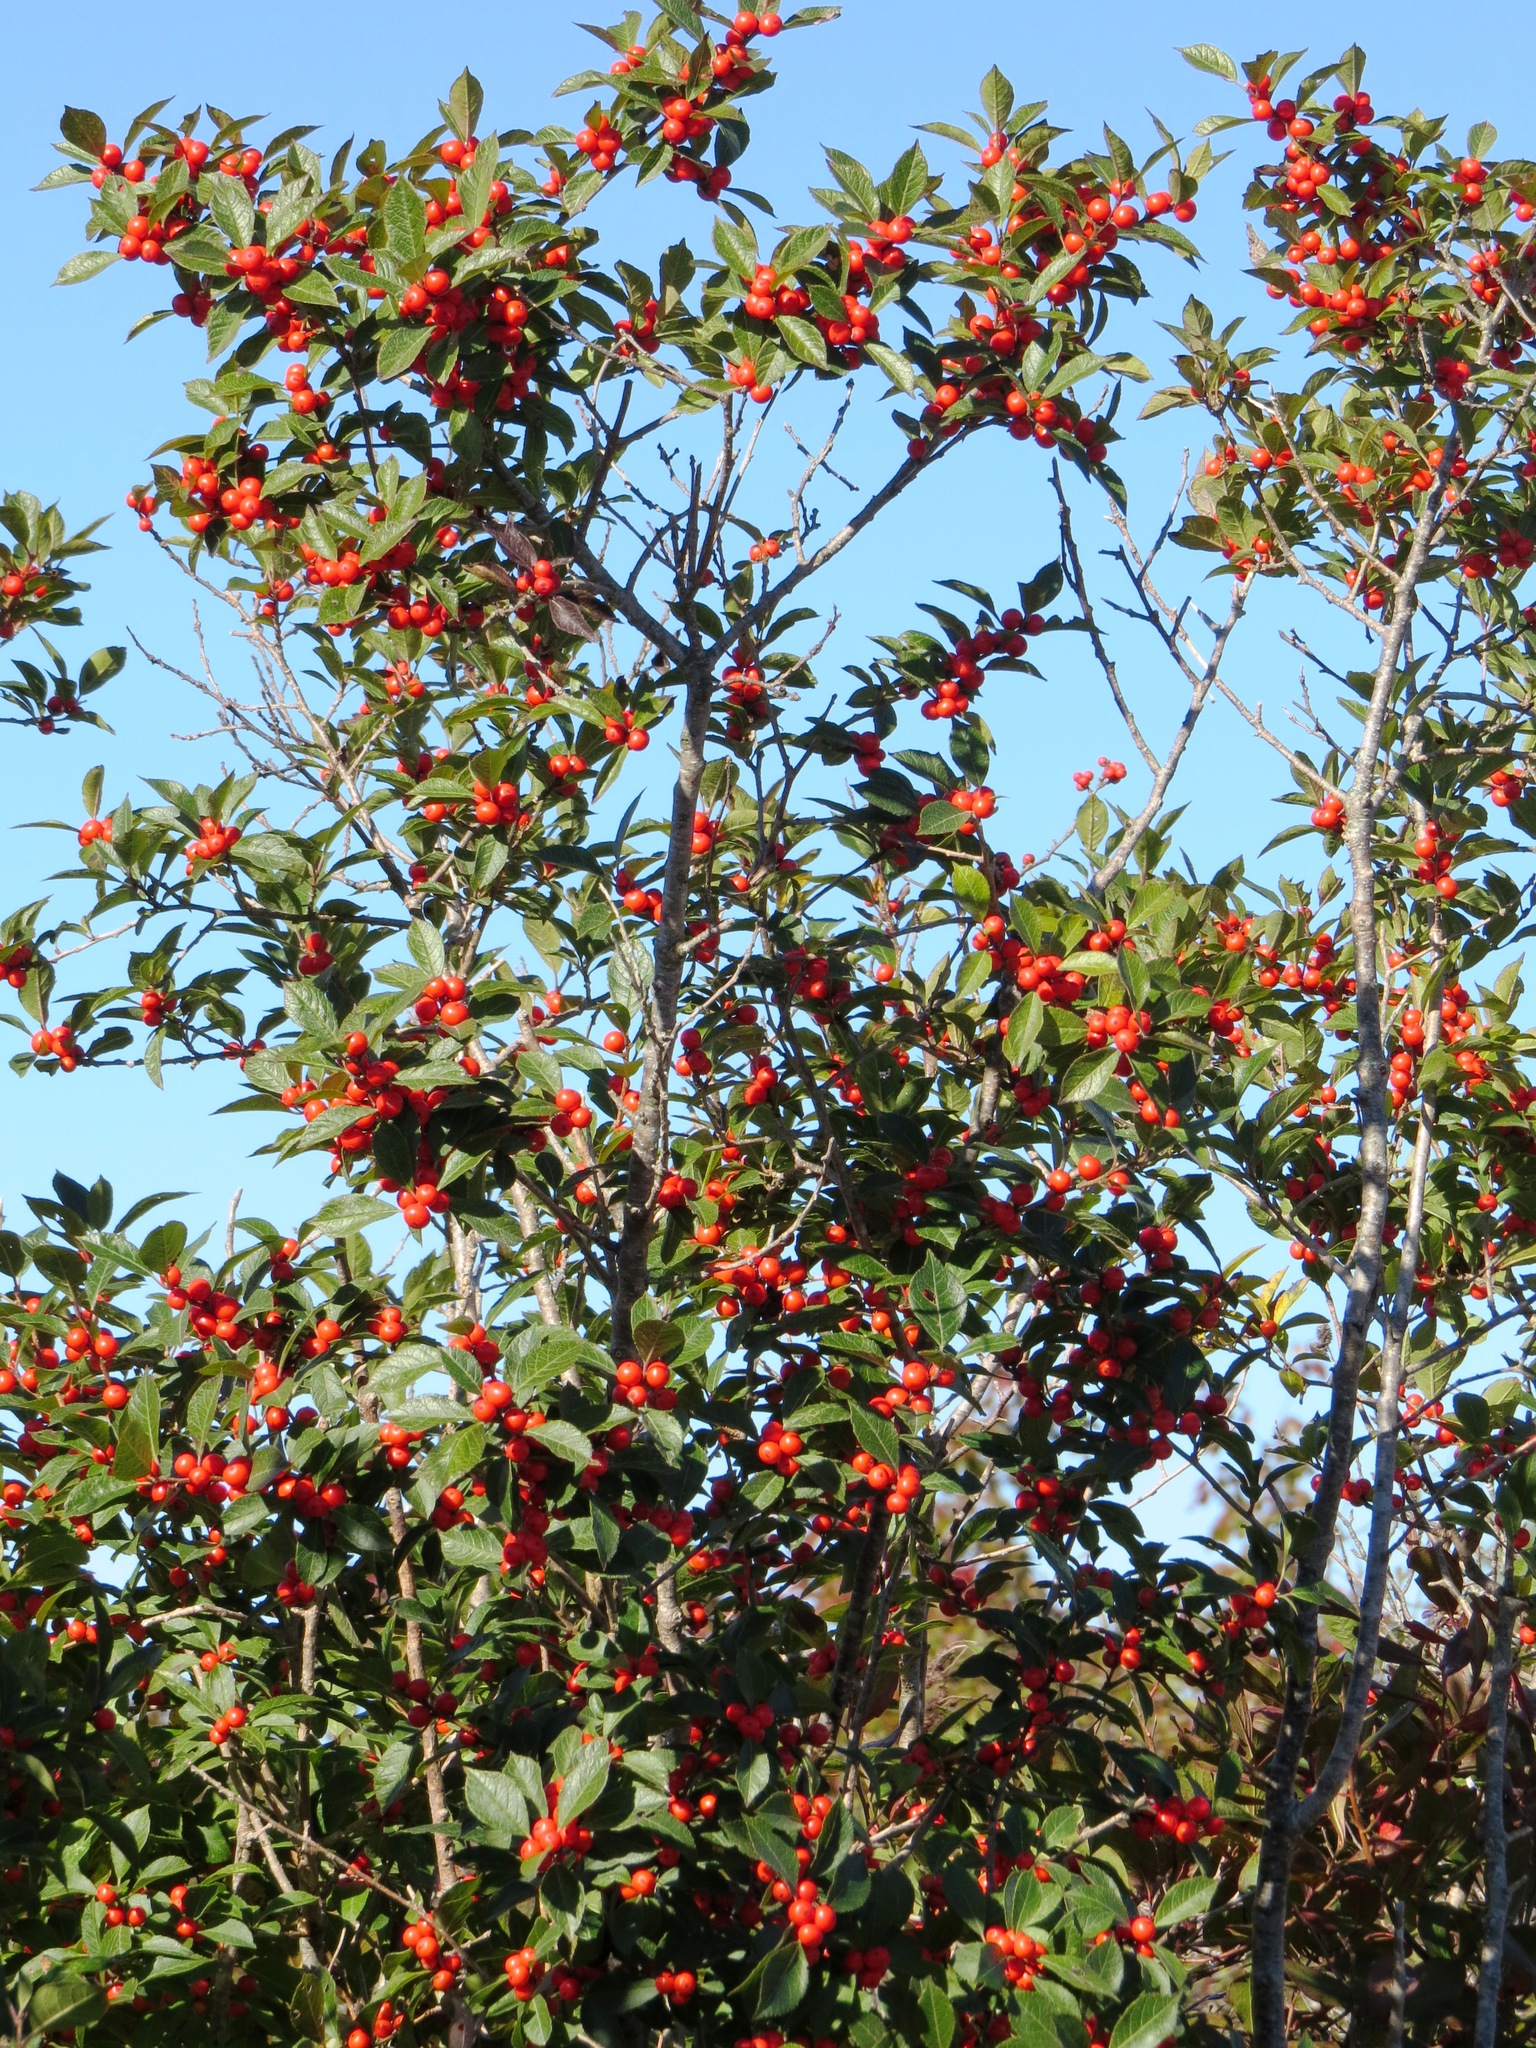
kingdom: Plantae
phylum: Tracheophyta
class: Magnoliopsida
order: Aquifoliales
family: Aquifoliaceae
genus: Ilex
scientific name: Ilex verticillata
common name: Virginia winterberry
